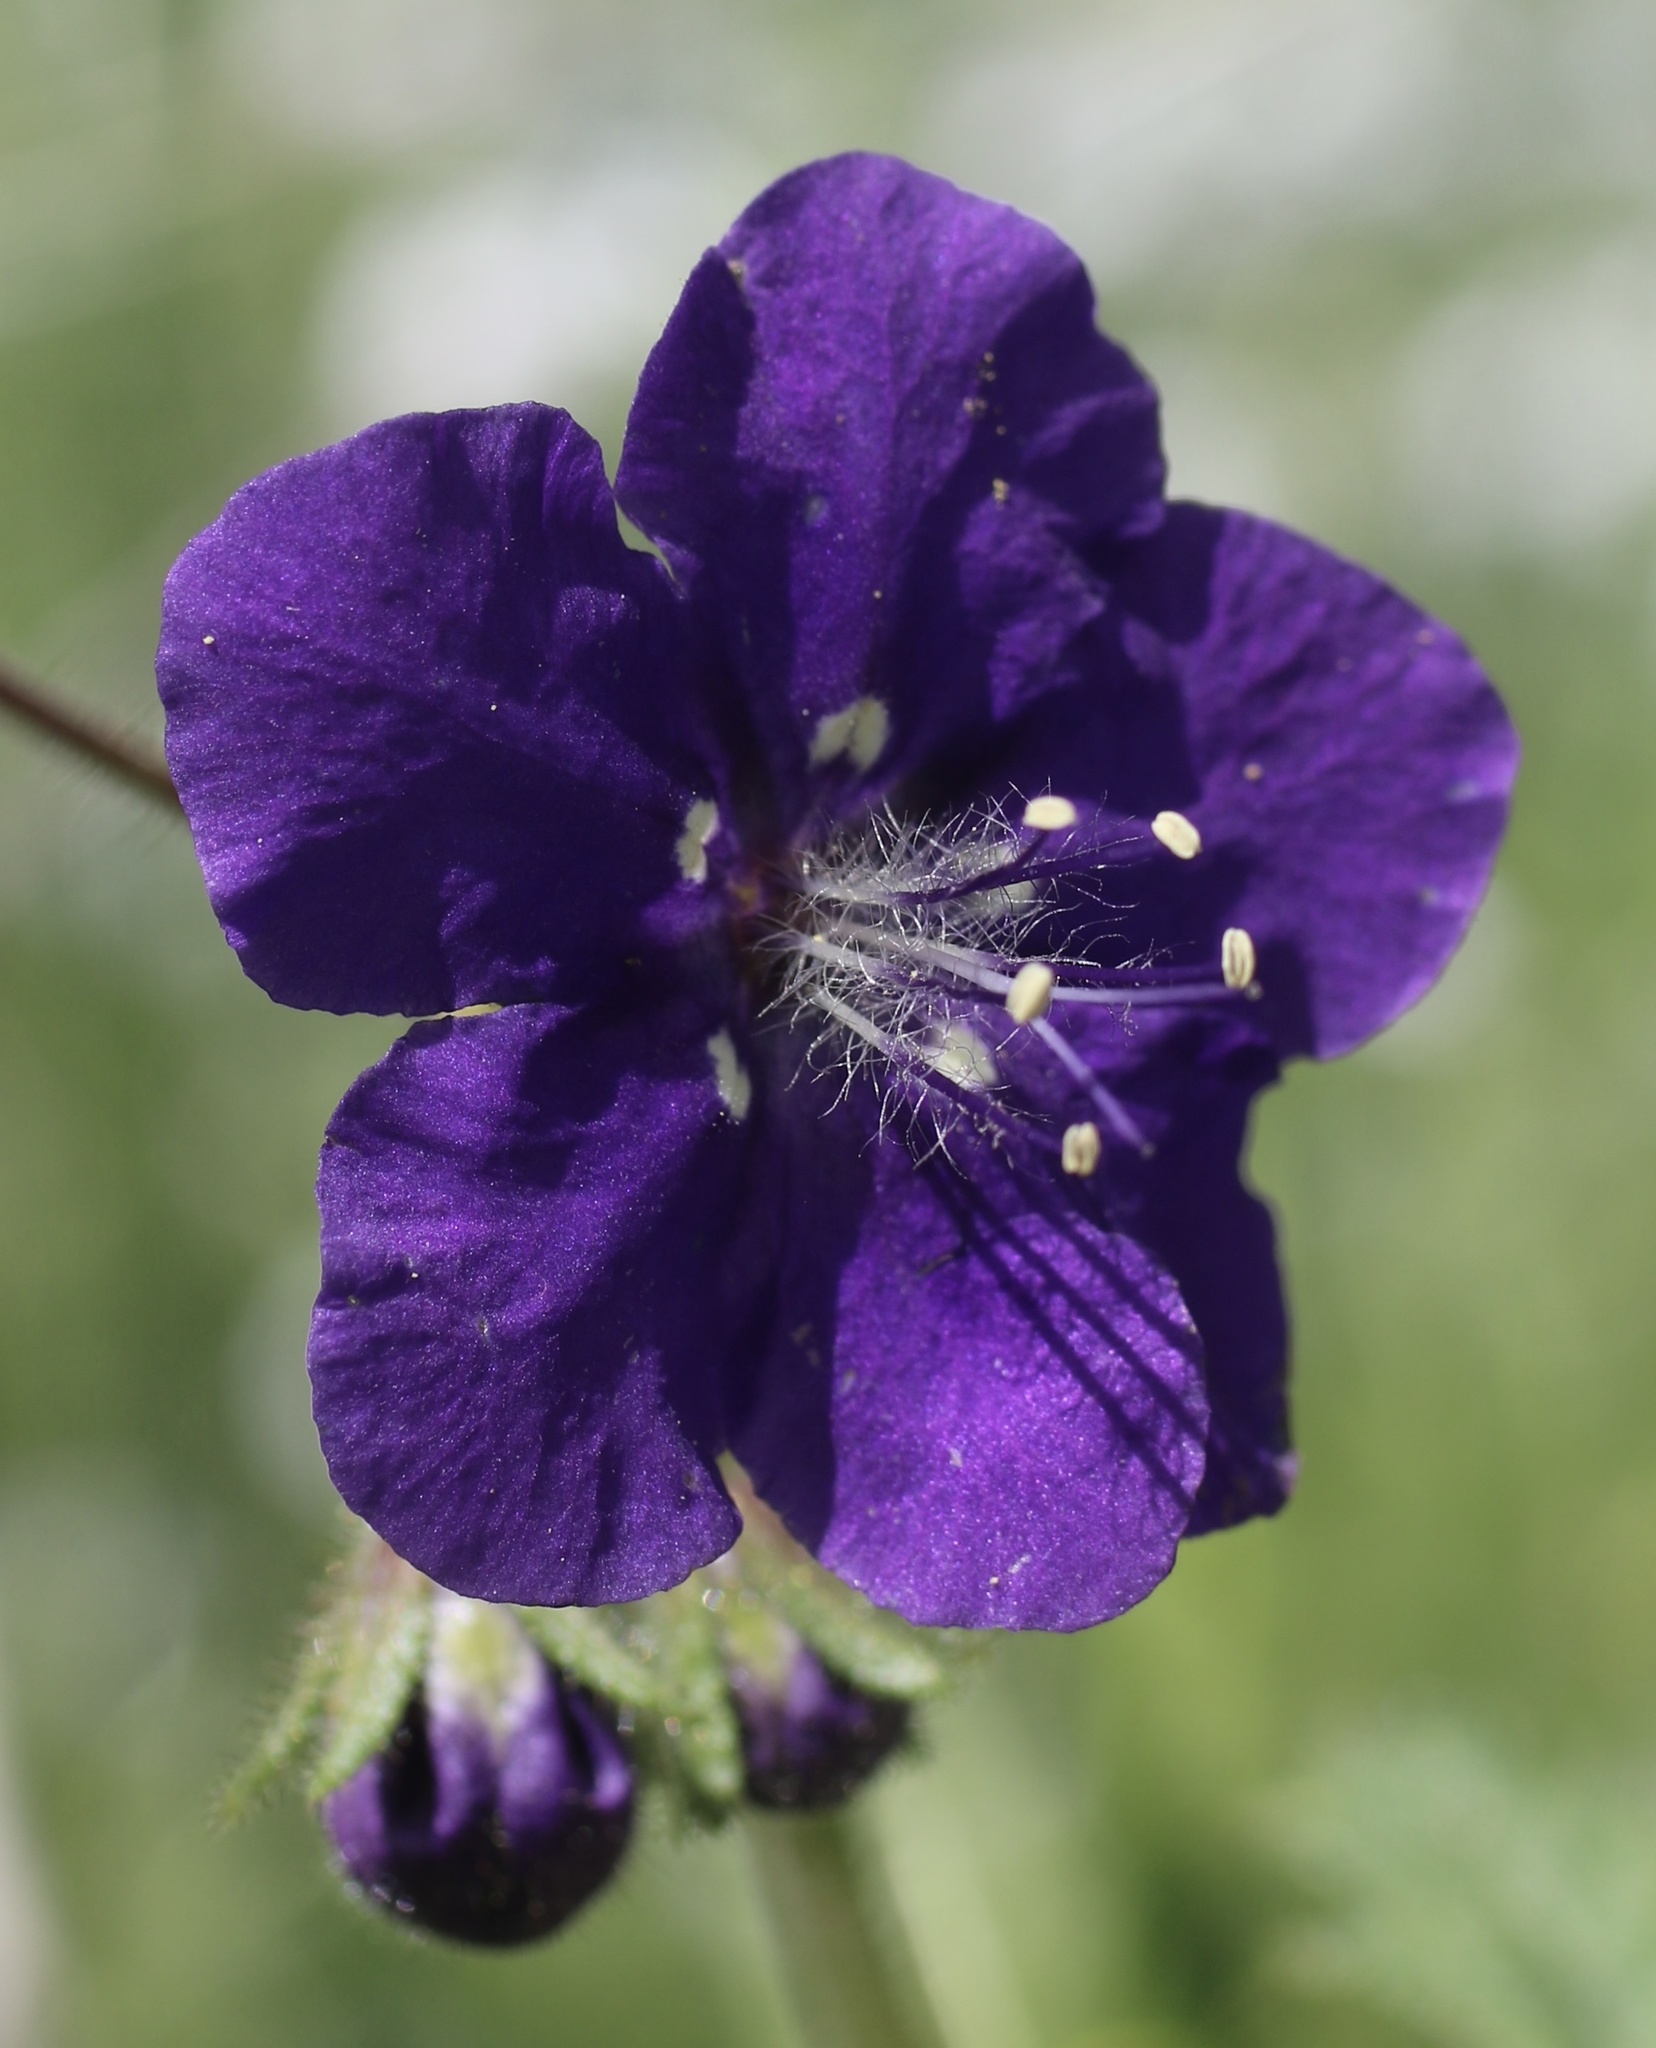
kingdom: Plantae
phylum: Tracheophyta
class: Magnoliopsida
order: Boraginales
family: Hydrophyllaceae
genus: Phacelia
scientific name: Phacelia parryi
